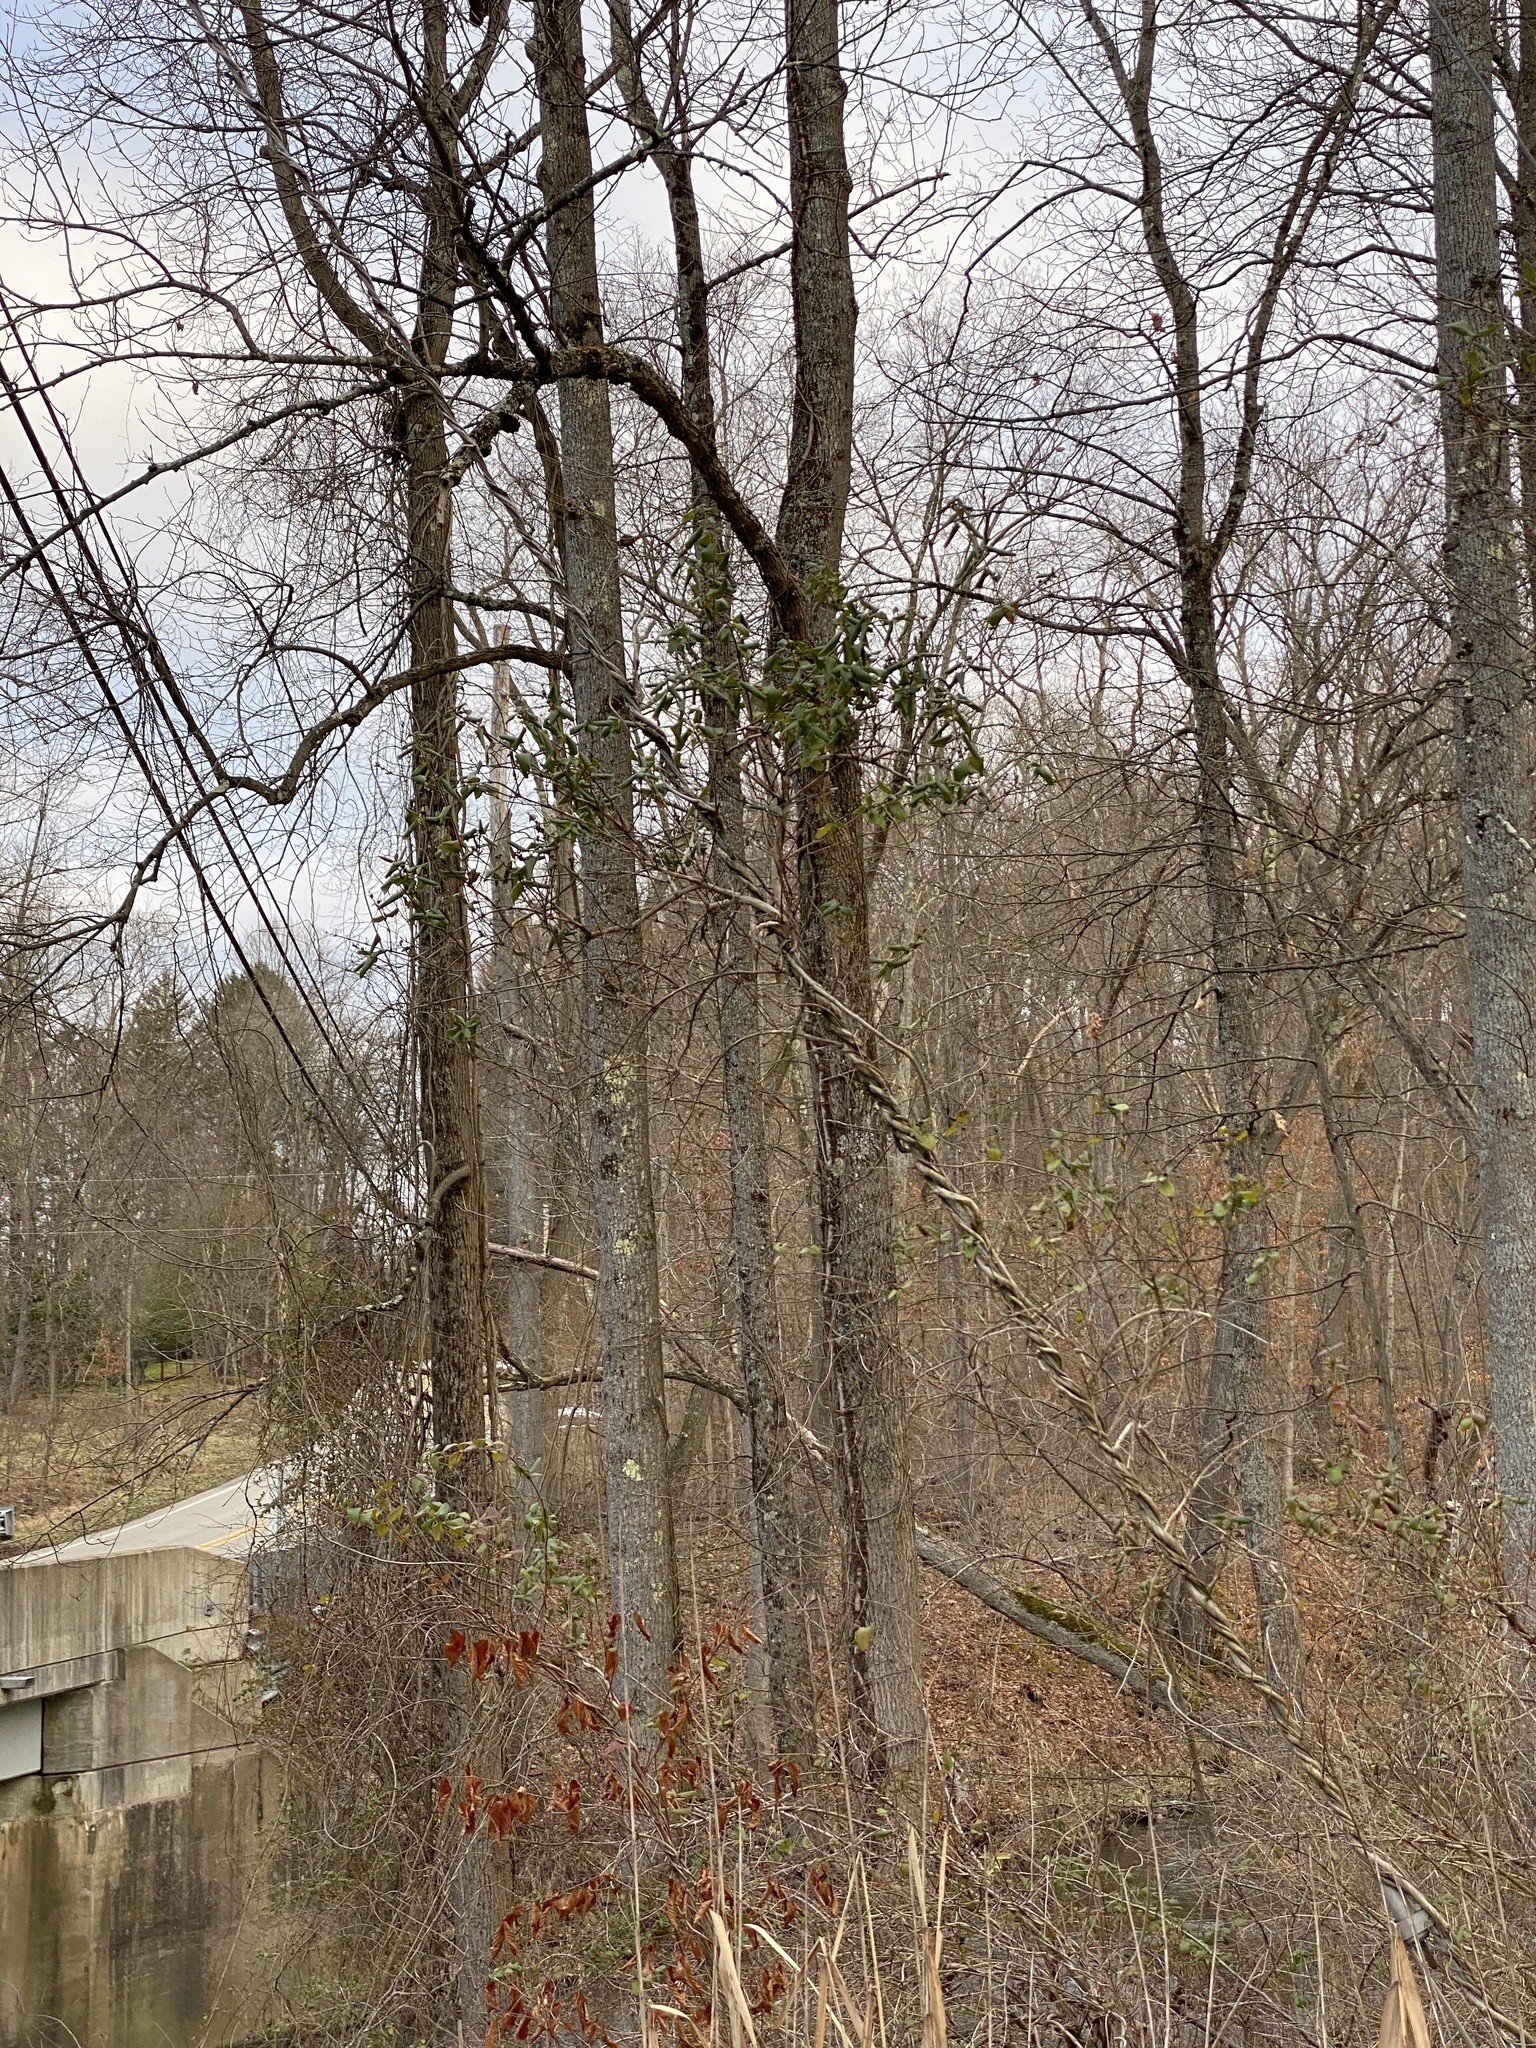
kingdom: Plantae
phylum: Tracheophyta
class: Magnoliopsida
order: Dipsacales
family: Caprifoliaceae
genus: Lonicera
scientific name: Lonicera japonica
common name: Japanese honeysuckle
